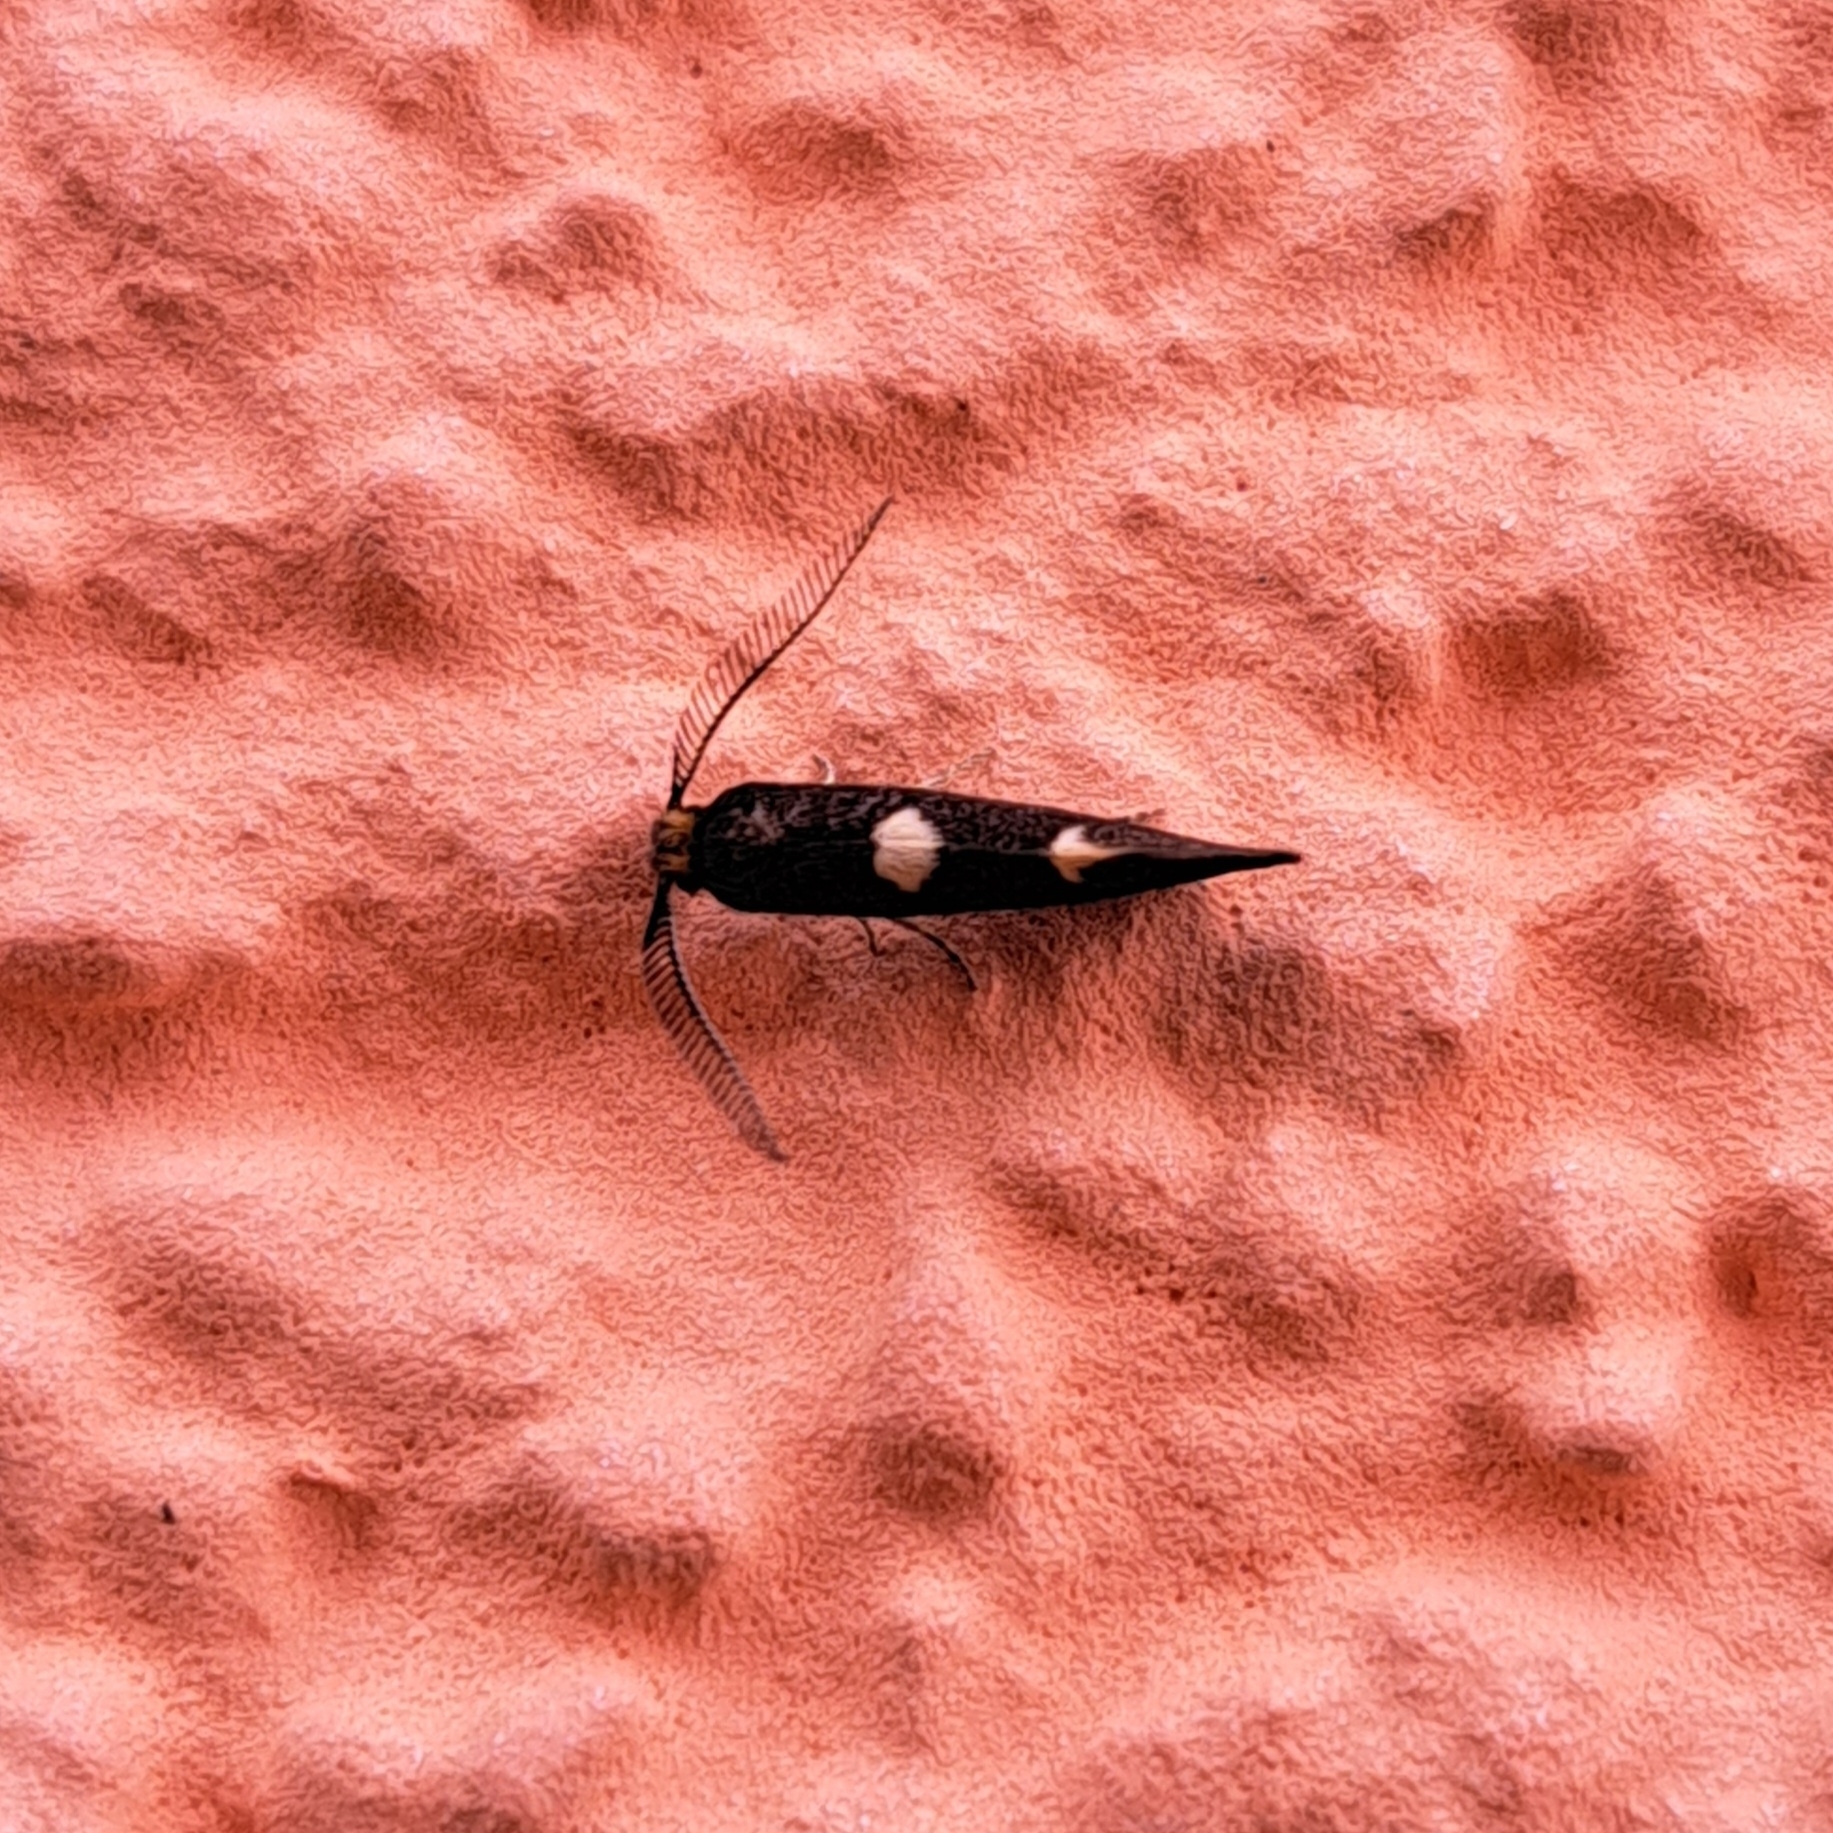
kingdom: Animalia
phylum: Arthropoda
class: Insecta
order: Lepidoptera
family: Incurvariidae
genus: Incurvaria
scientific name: Incurvaria masculella
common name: Feathered leaf-cutter
